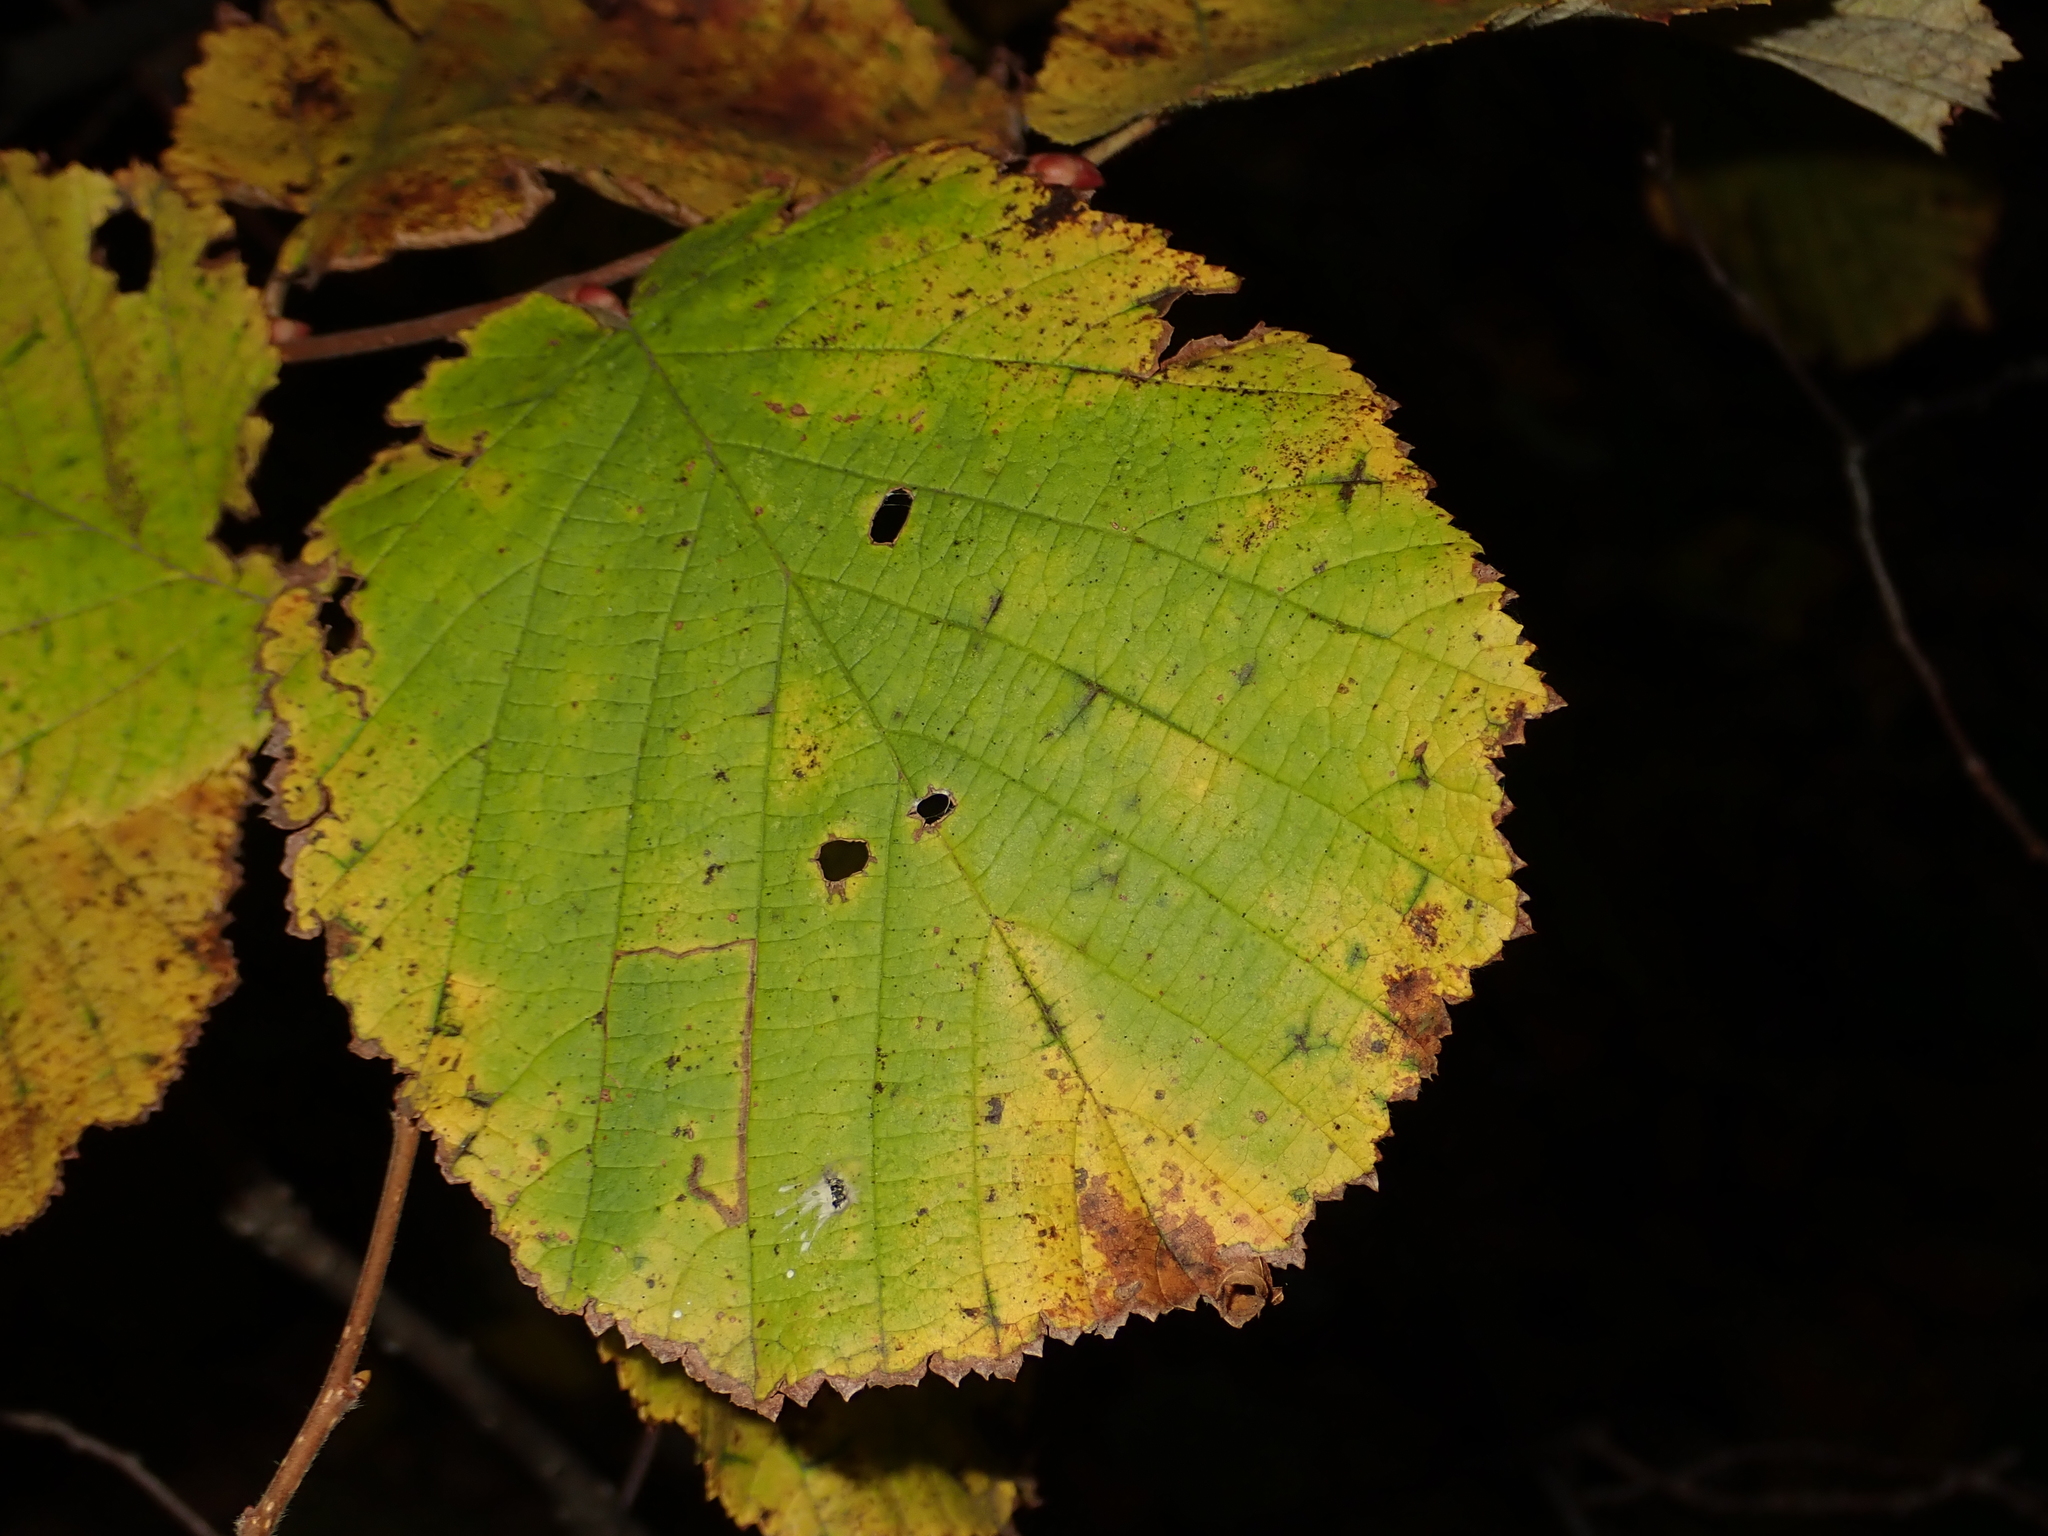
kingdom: Plantae
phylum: Tracheophyta
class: Magnoliopsida
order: Fagales
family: Betulaceae
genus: Corylus
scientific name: Corylus avellana
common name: European hazel
